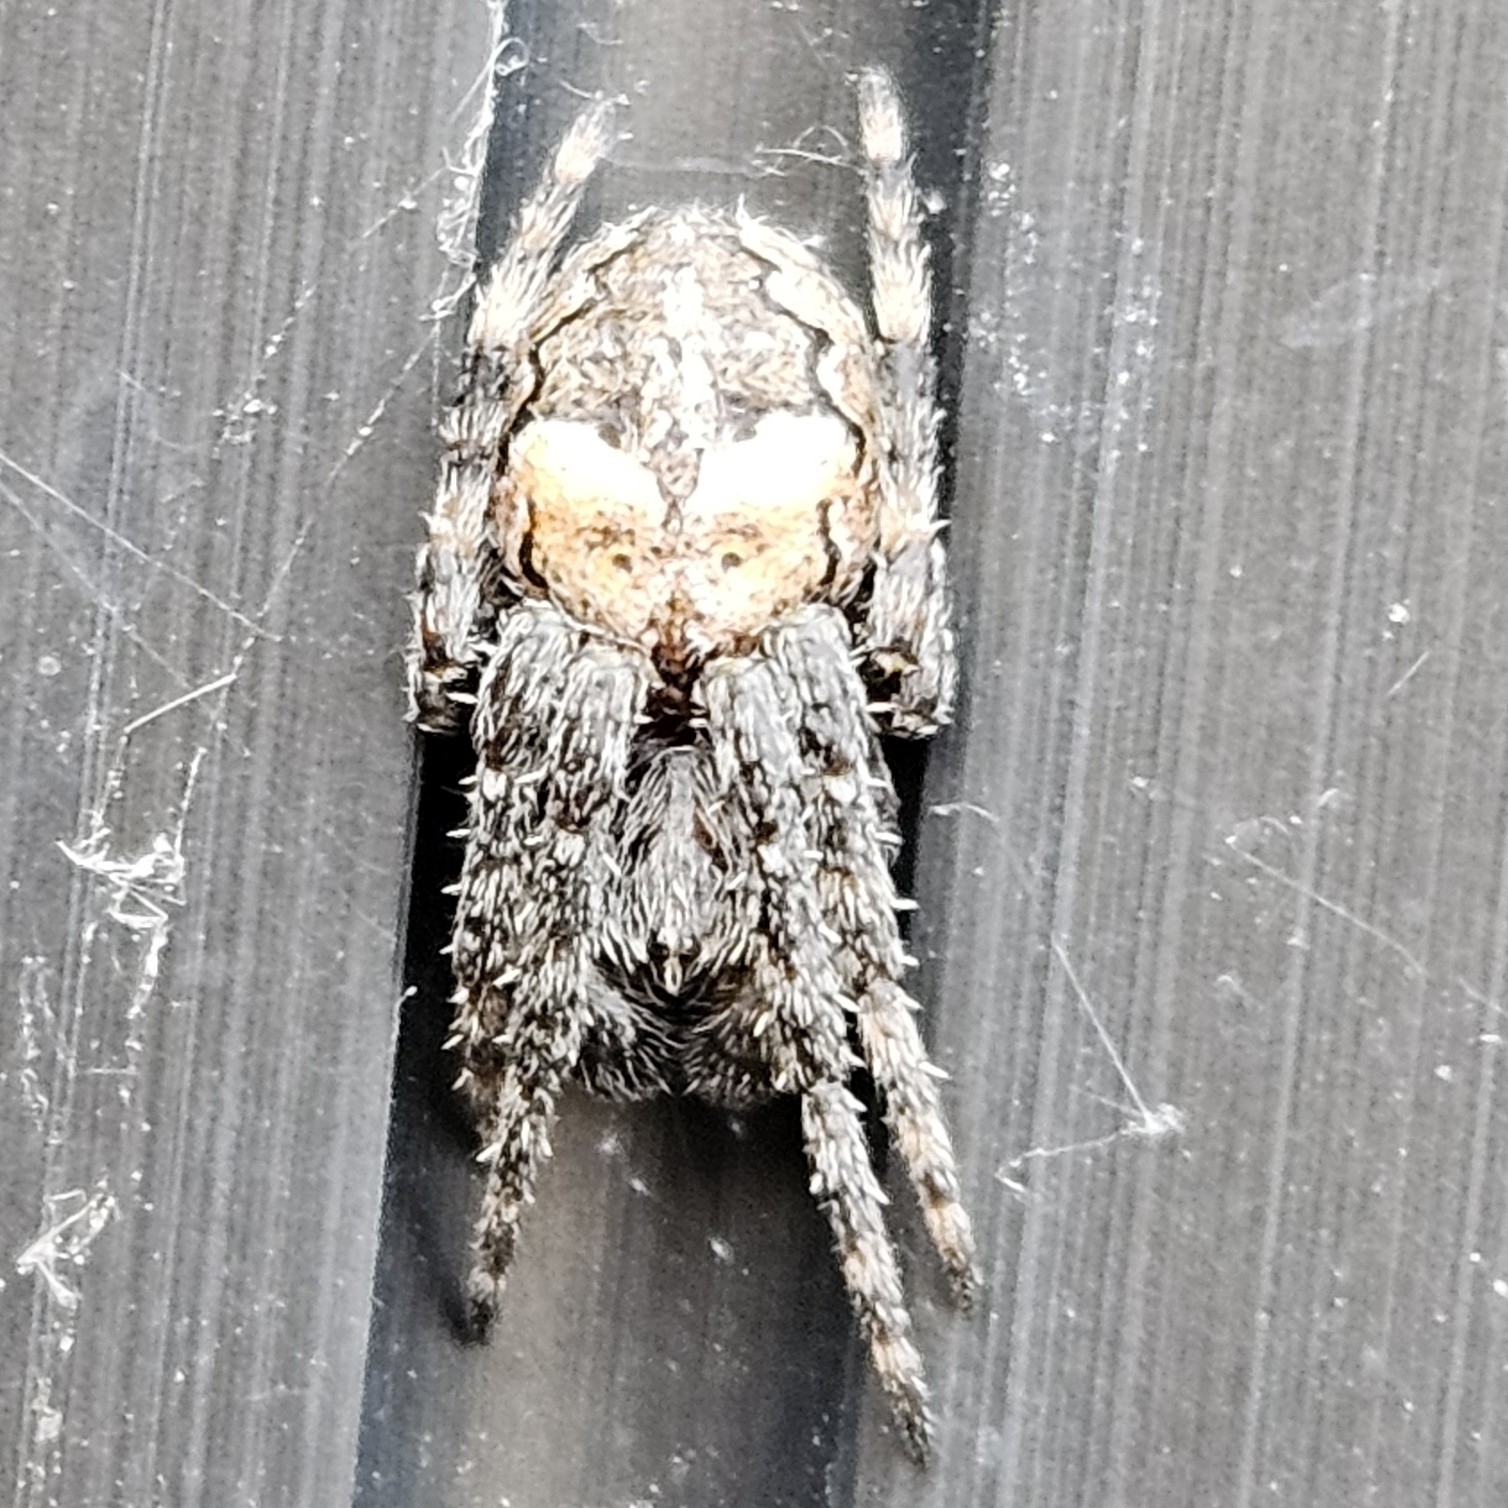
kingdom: Animalia
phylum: Arthropoda
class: Arachnida
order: Araneae
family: Araneidae
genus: Larinioides
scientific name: Larinioides patagiatus
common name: Ornamental orbweaver
